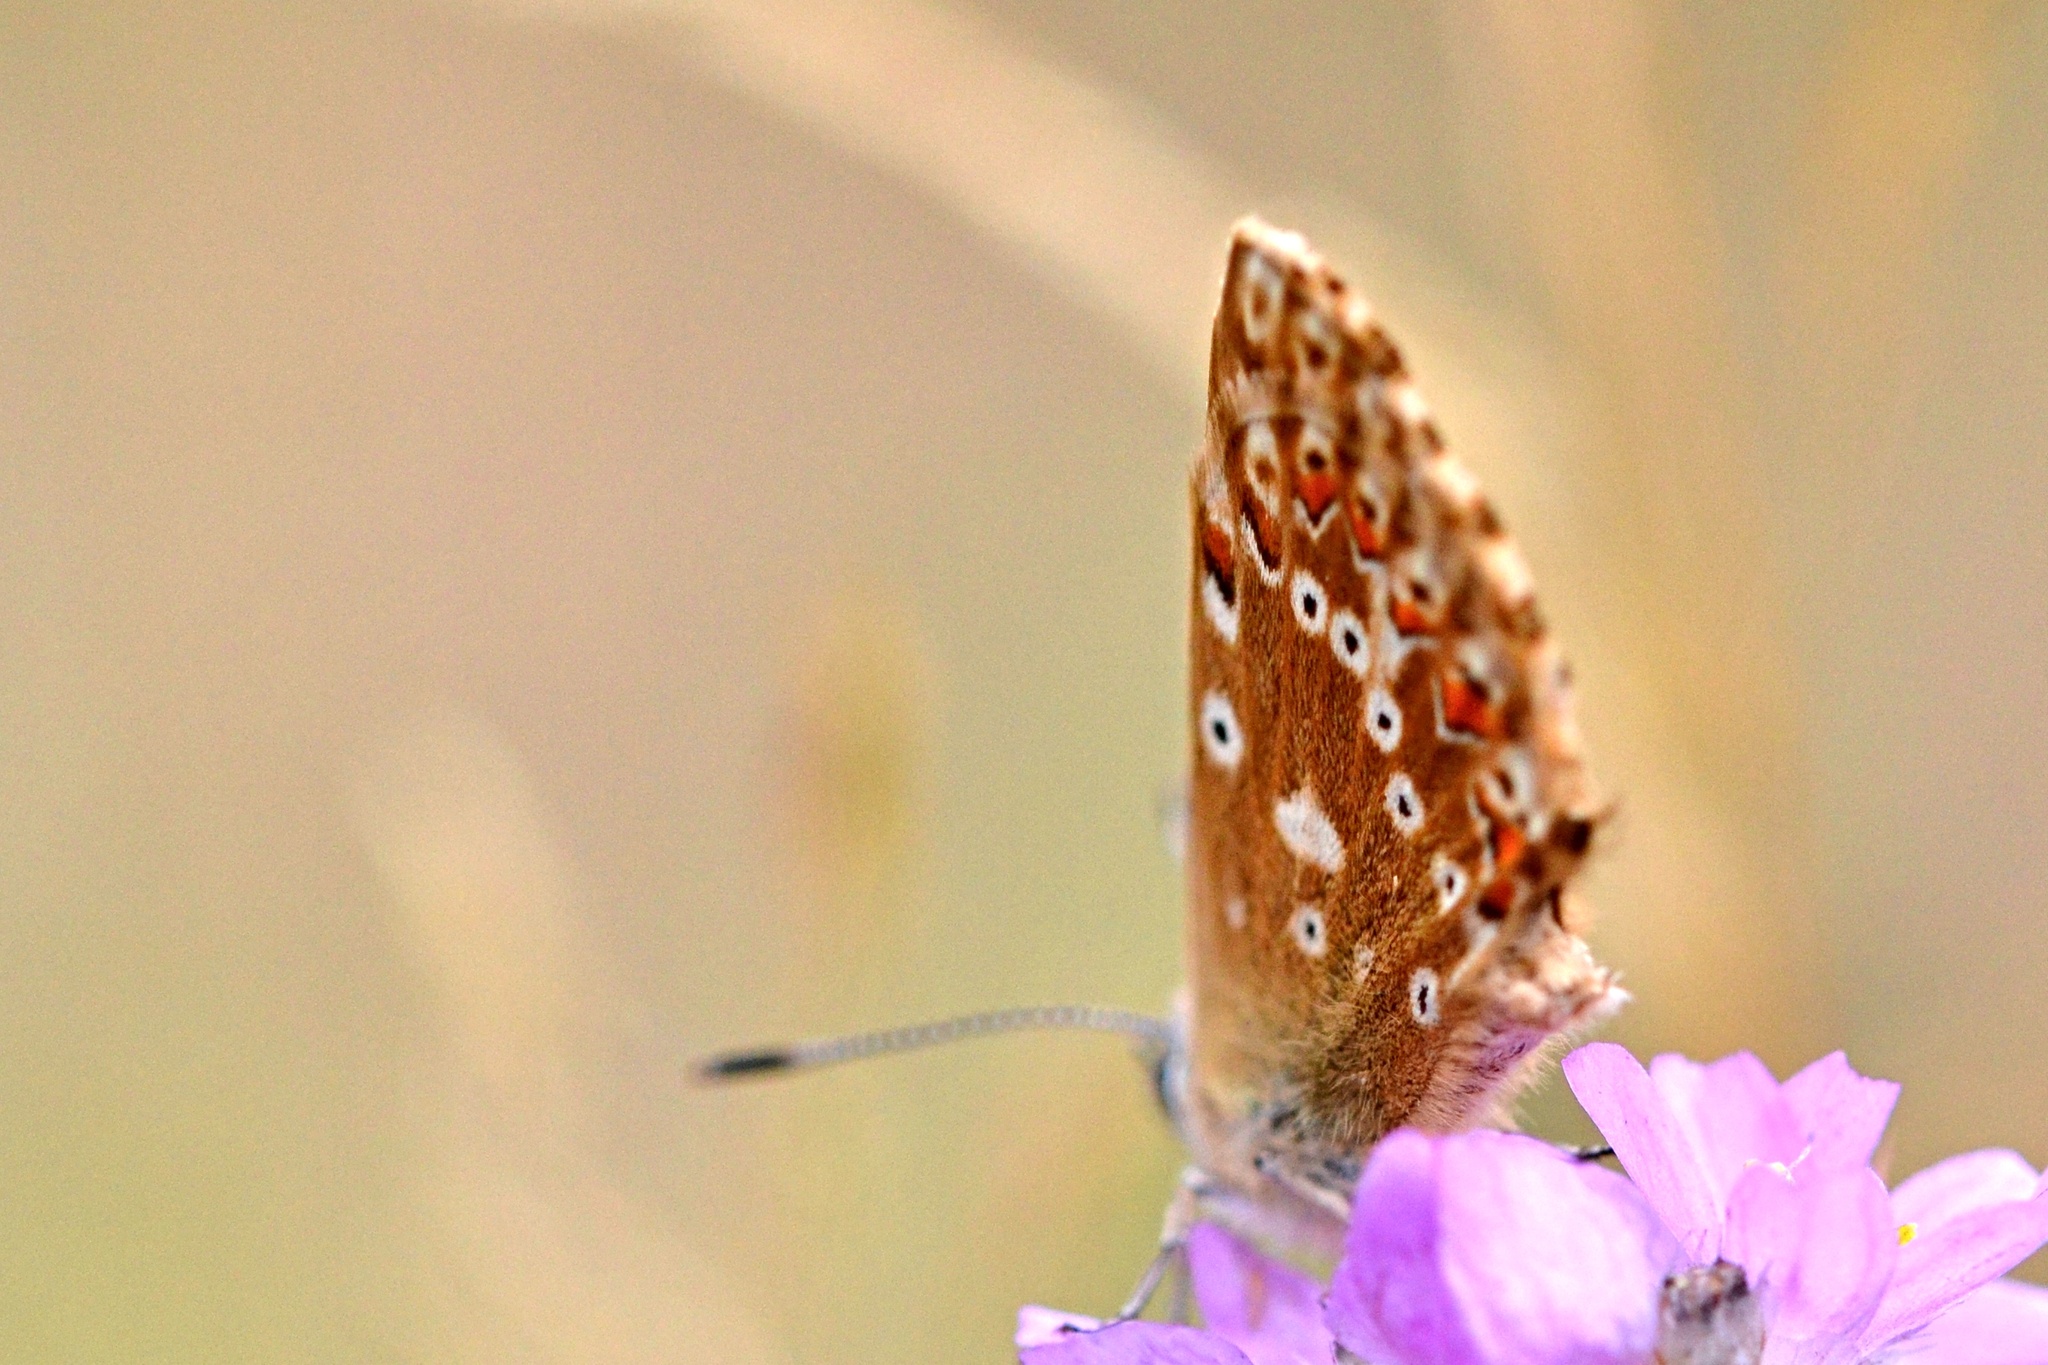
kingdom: Animalia
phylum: Arthropoda
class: Insecta
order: Lepidoptera
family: Lycaenidae
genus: Lysandra
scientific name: Lysandra coridon
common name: Chalkhill blue
